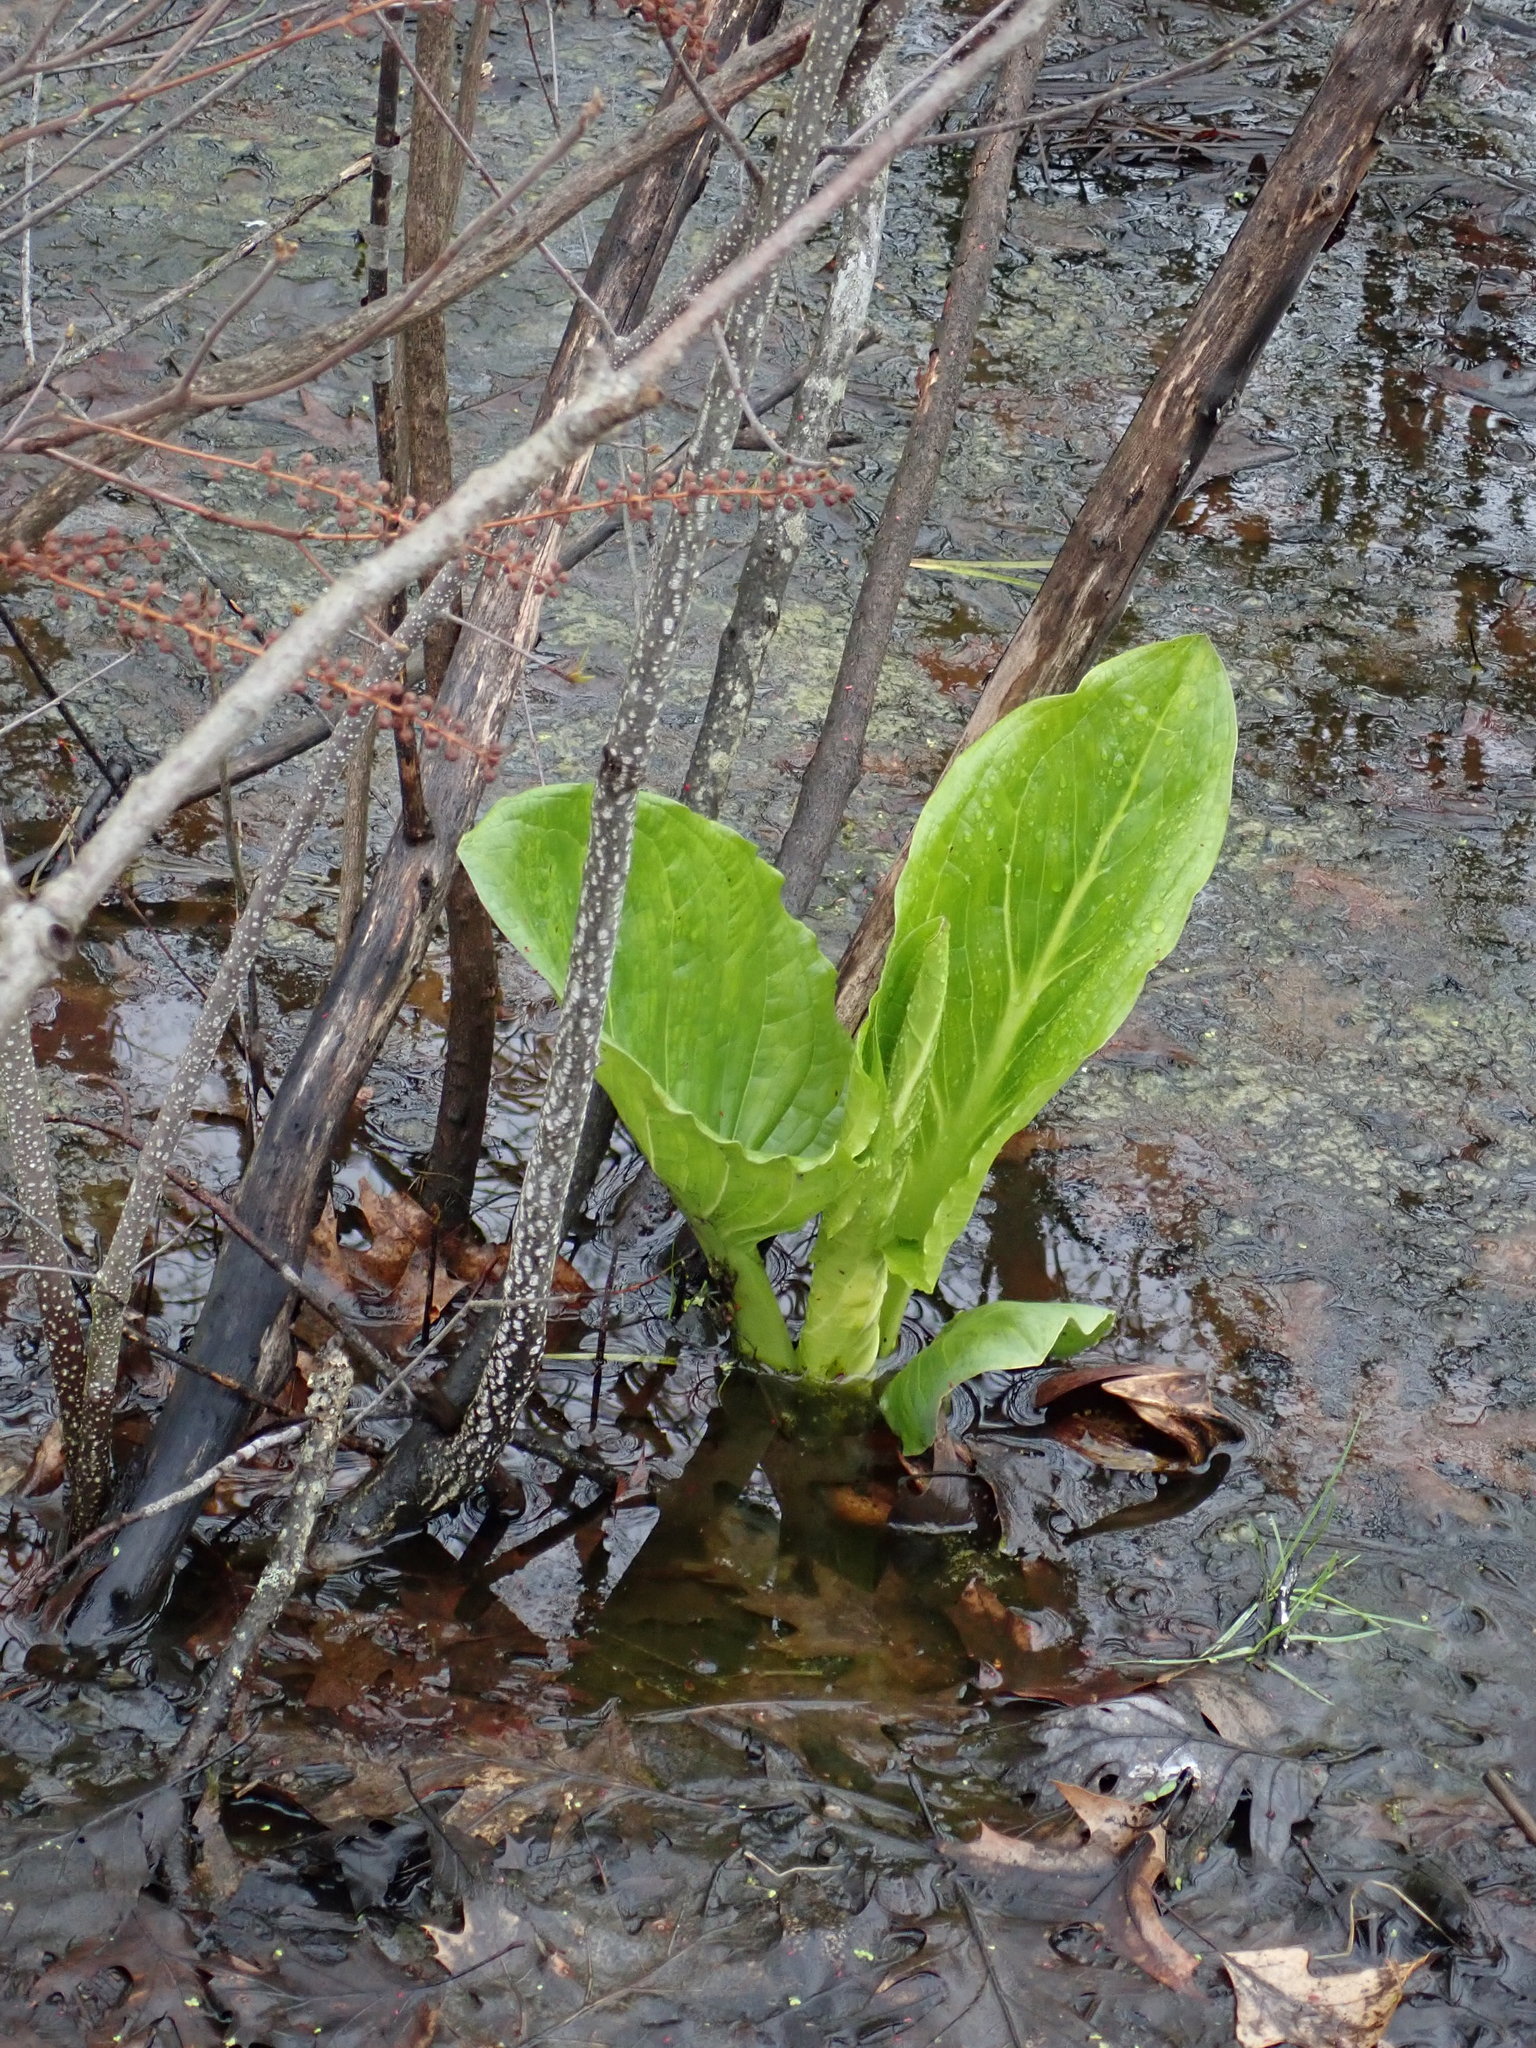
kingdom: Plantae
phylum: Tracheophyta
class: Liliopsida
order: Alismatales
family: Araceae
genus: Symplocarpus
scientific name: Symplocarpus foetidus
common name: Eastern skunk cabbage
